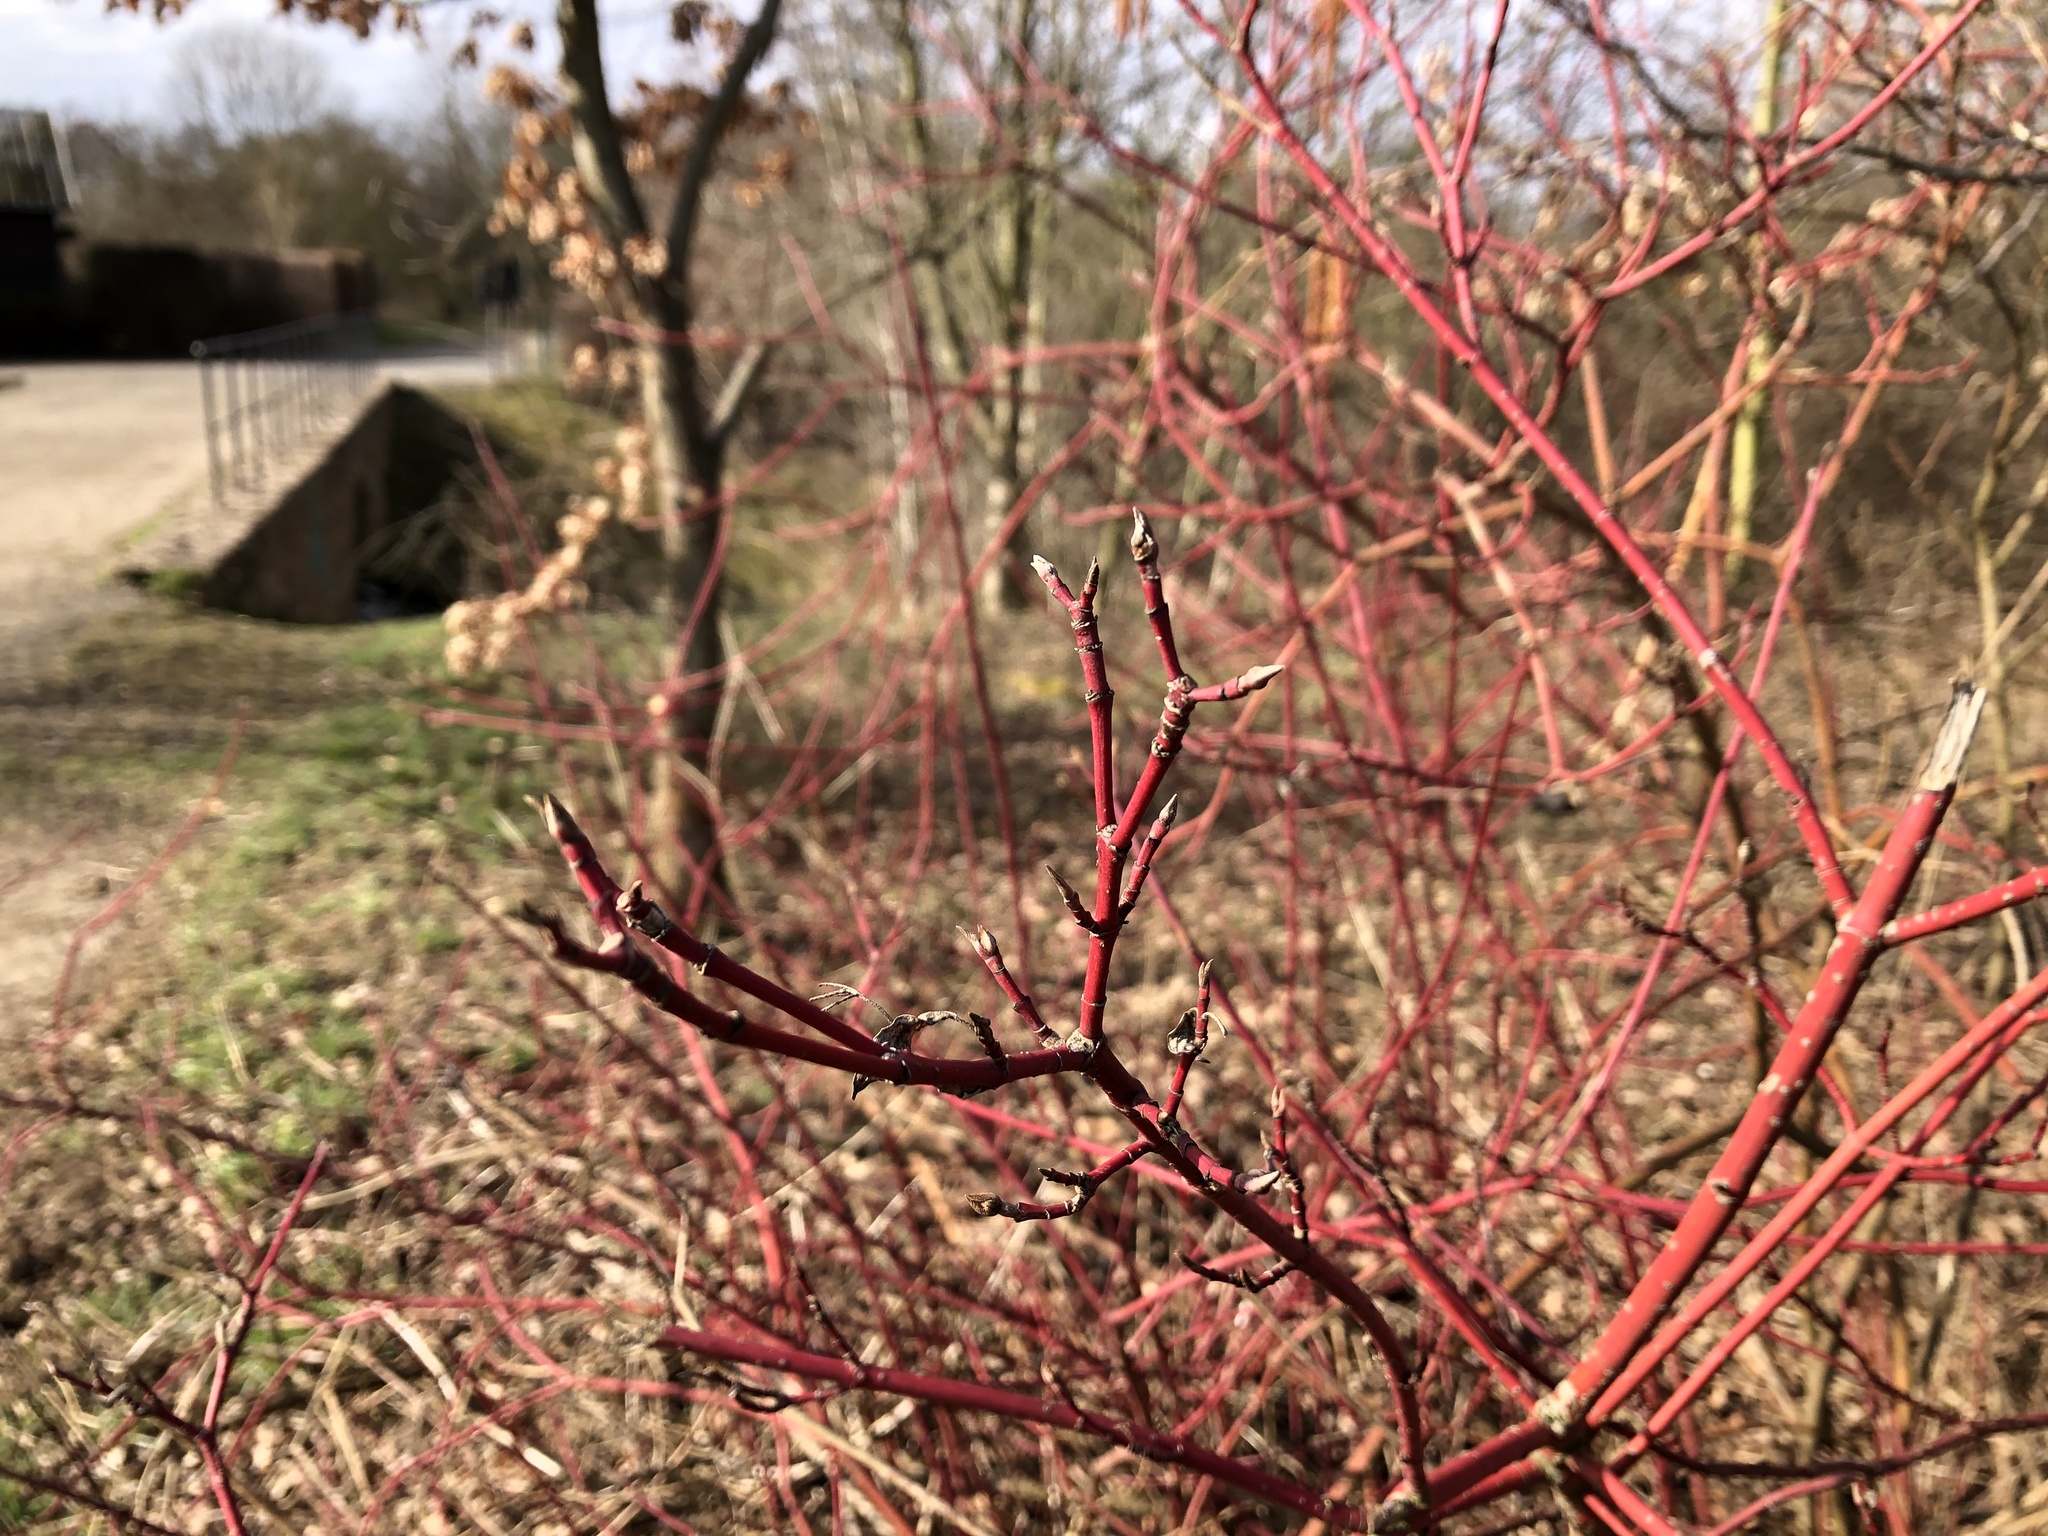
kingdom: Plantae
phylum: Tracheophyta
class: Magnoliopsida
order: Cornales
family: Cornaceae
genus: Cornus
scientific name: Cornus alba
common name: White dogwood
